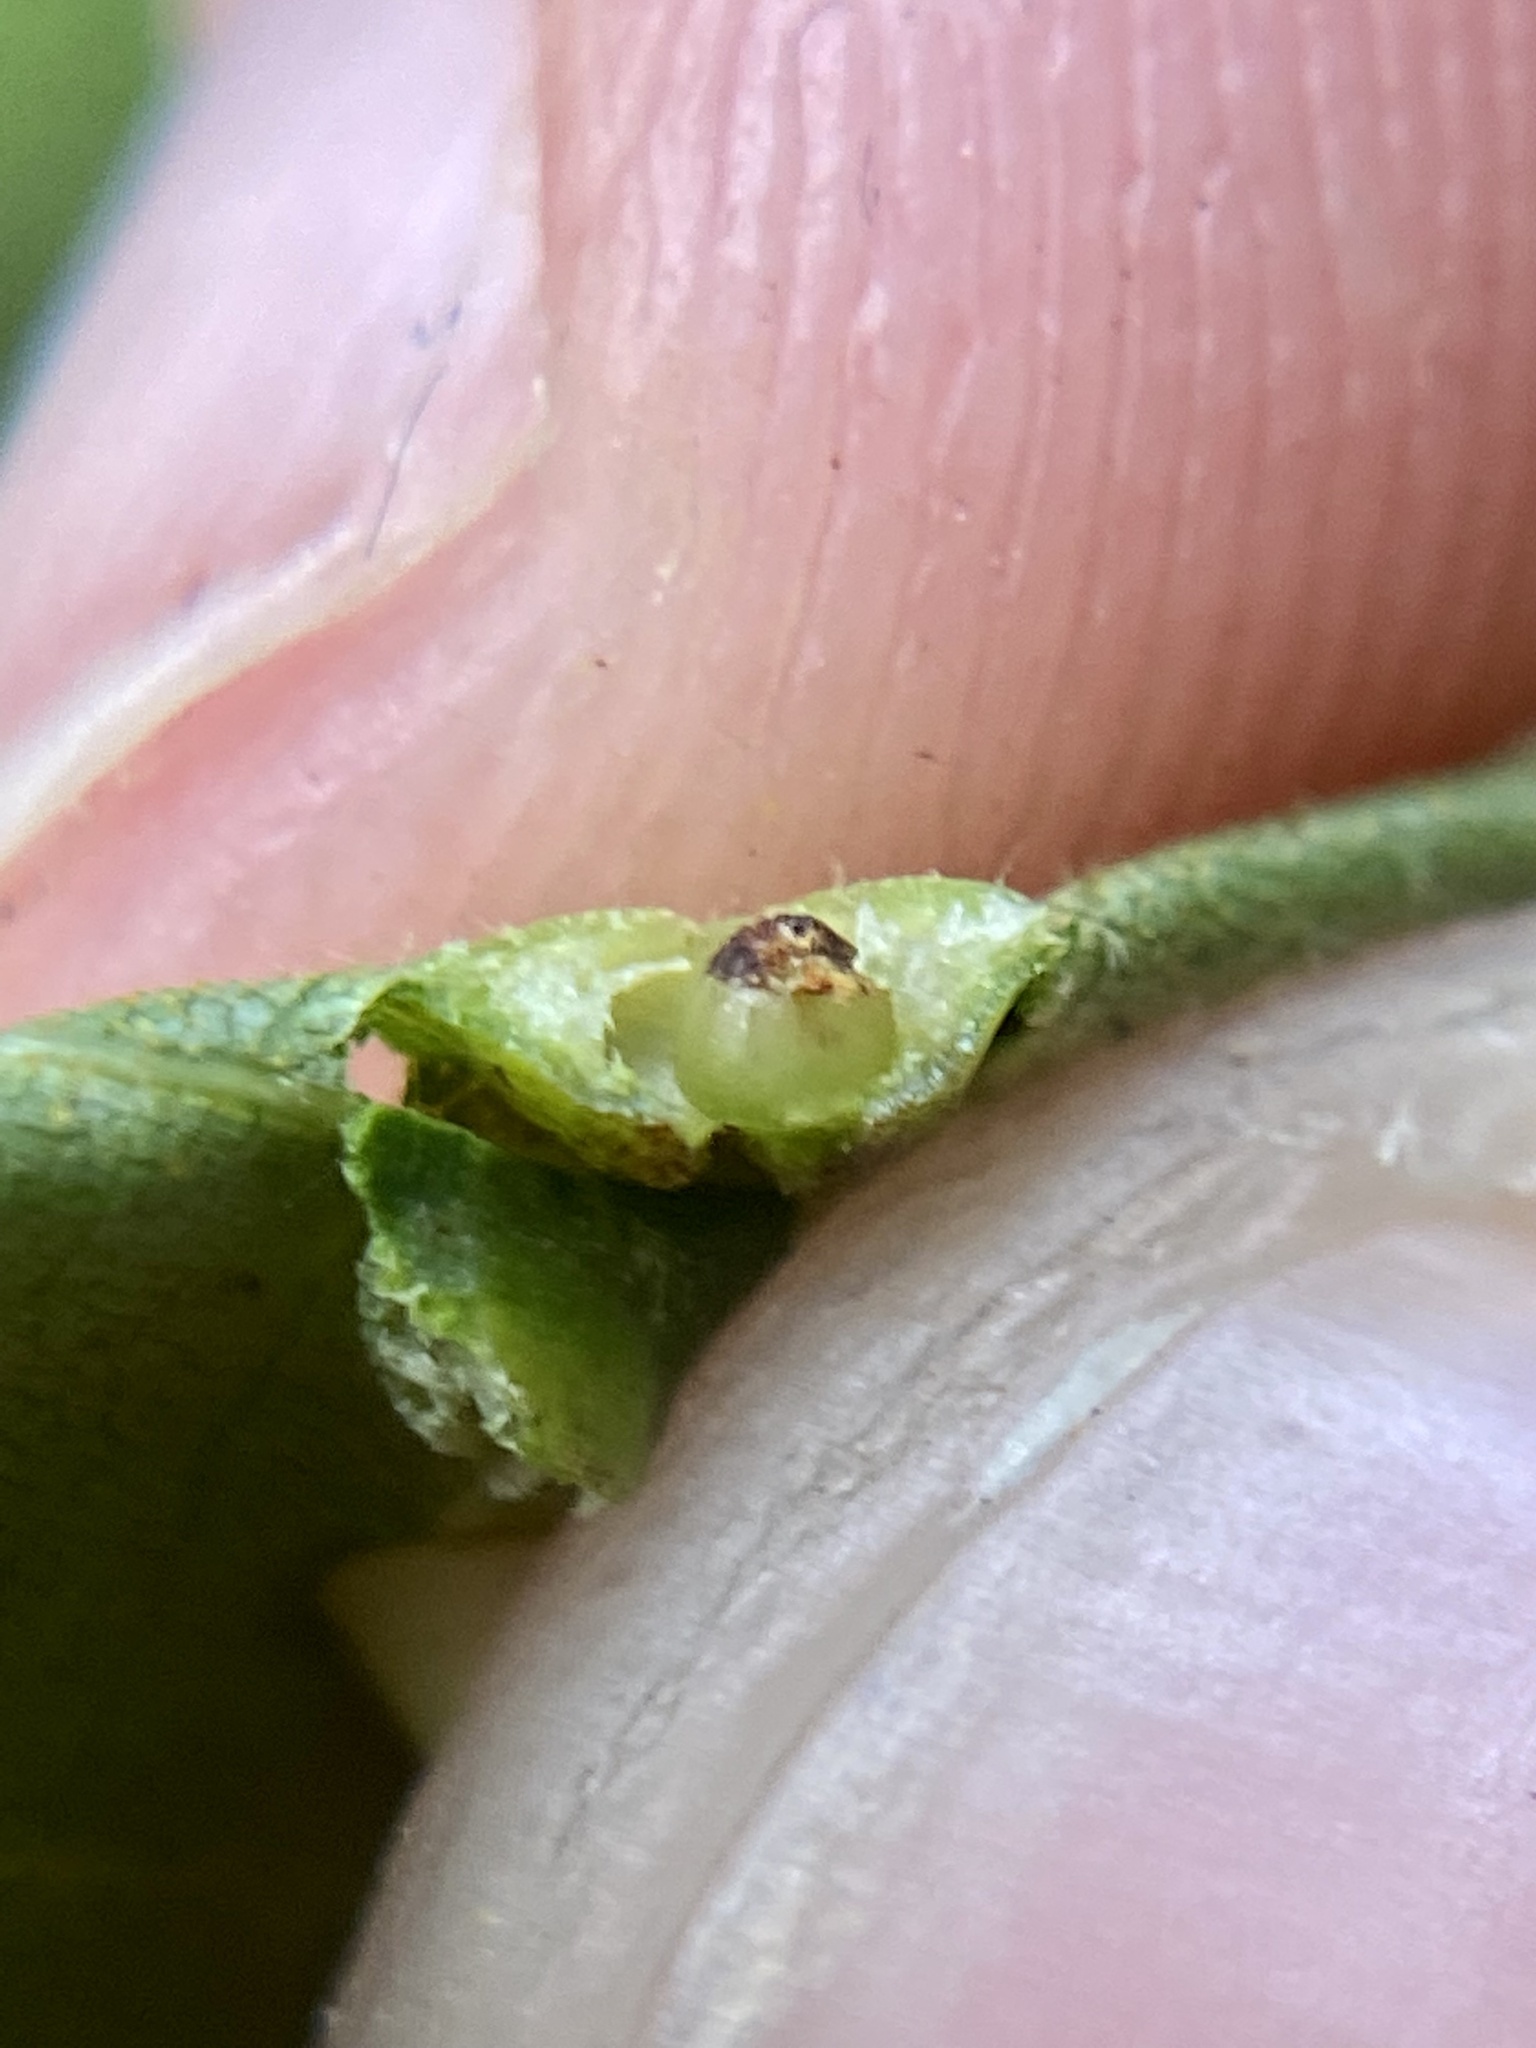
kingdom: Animalia
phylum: Arthropoda
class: Insecta
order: Diptera
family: Cecidomyiidae
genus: Caryomyia
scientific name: Caryomyia tubicola
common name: Hickory bullet gall midge
